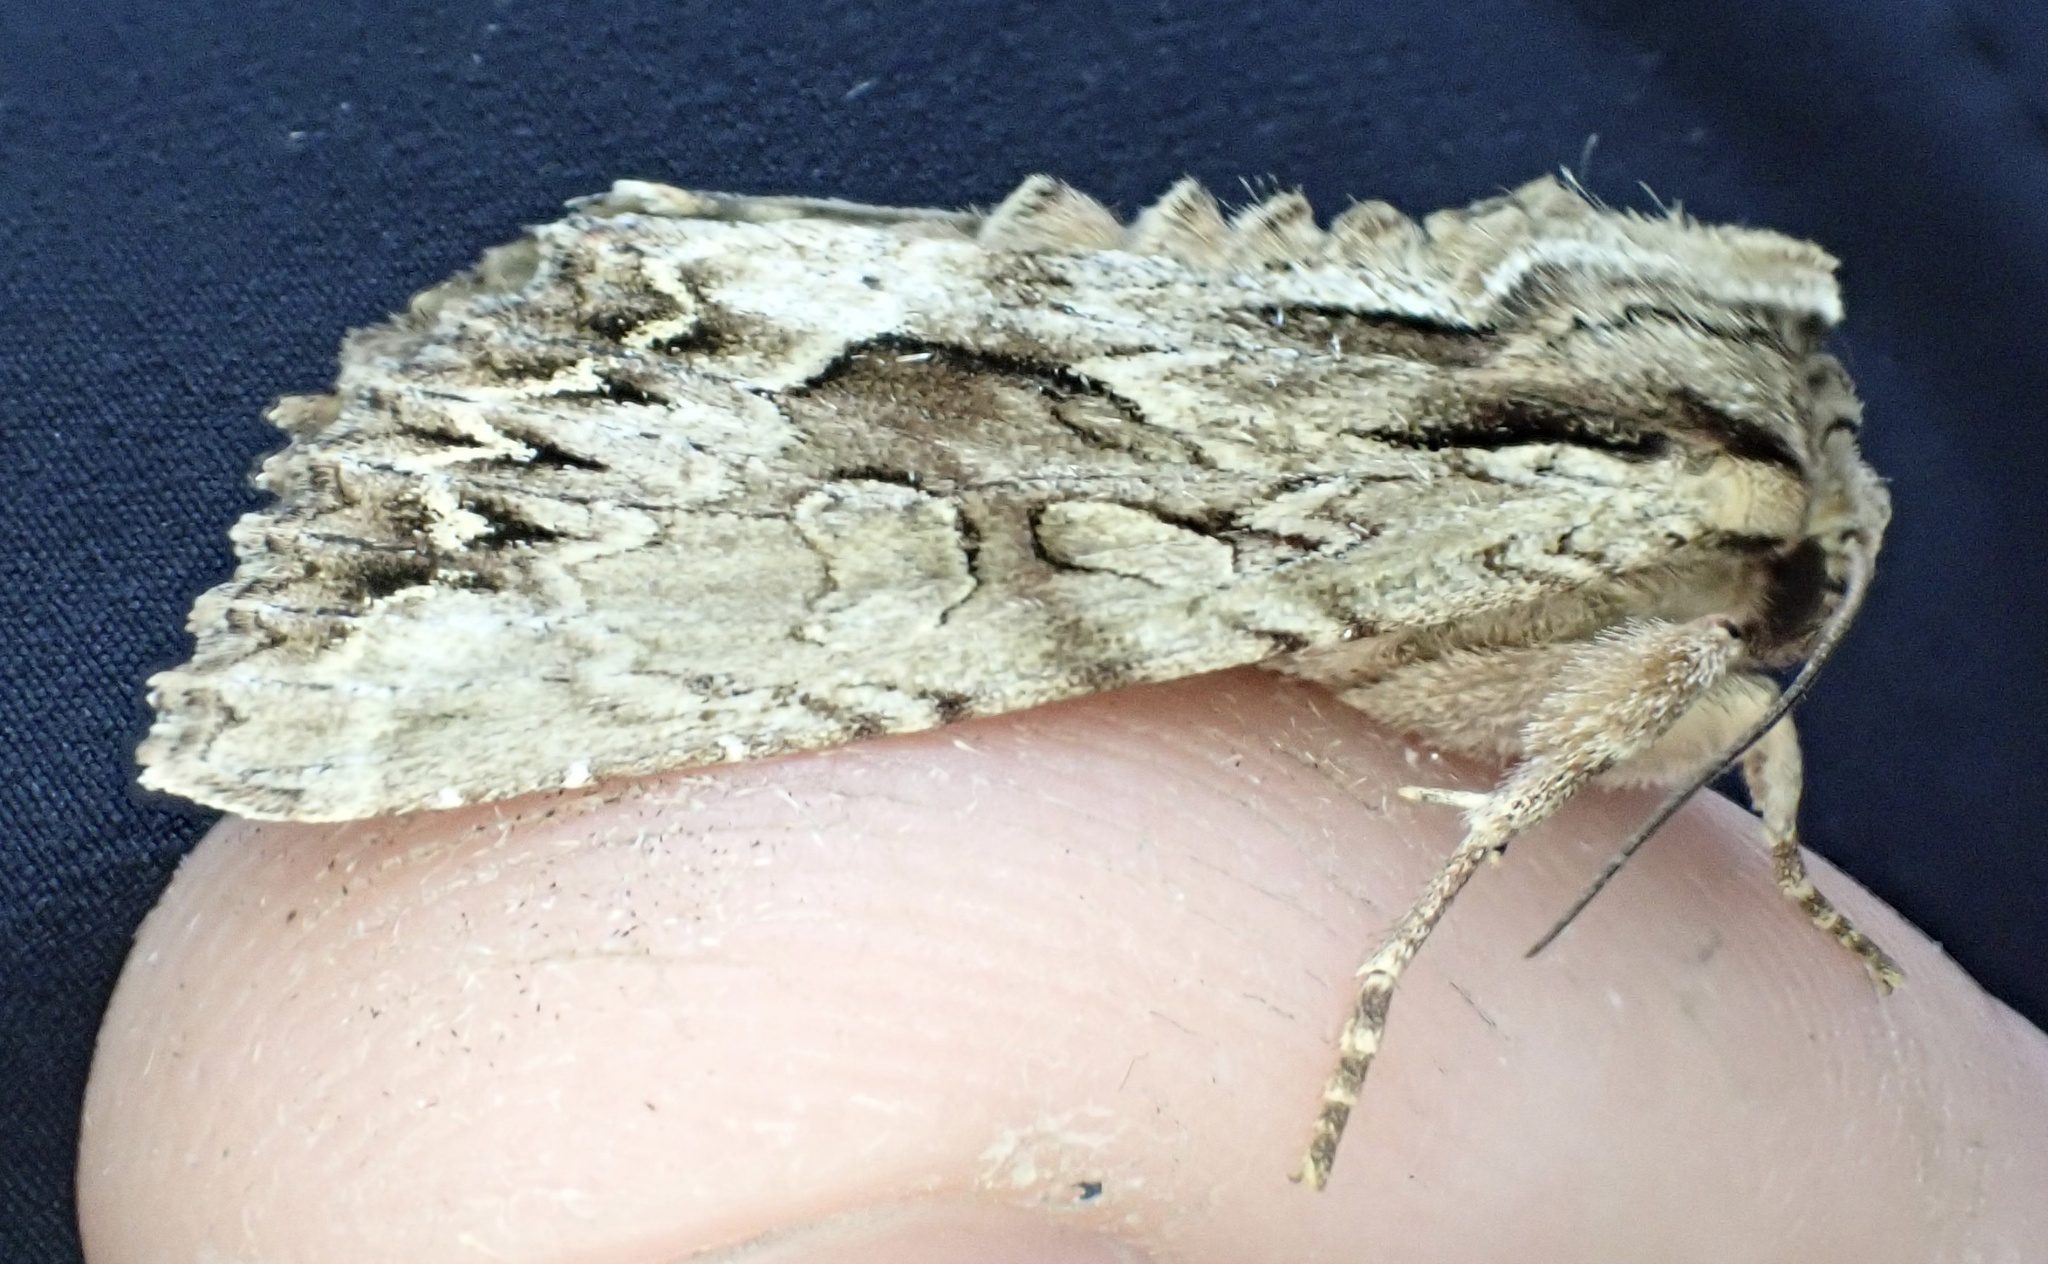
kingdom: Animalia
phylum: Arthropoda
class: Insecta
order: Lepidoptera
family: Noctuidae
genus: Apamea
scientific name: Apamea monoglypha
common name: Dark arches
